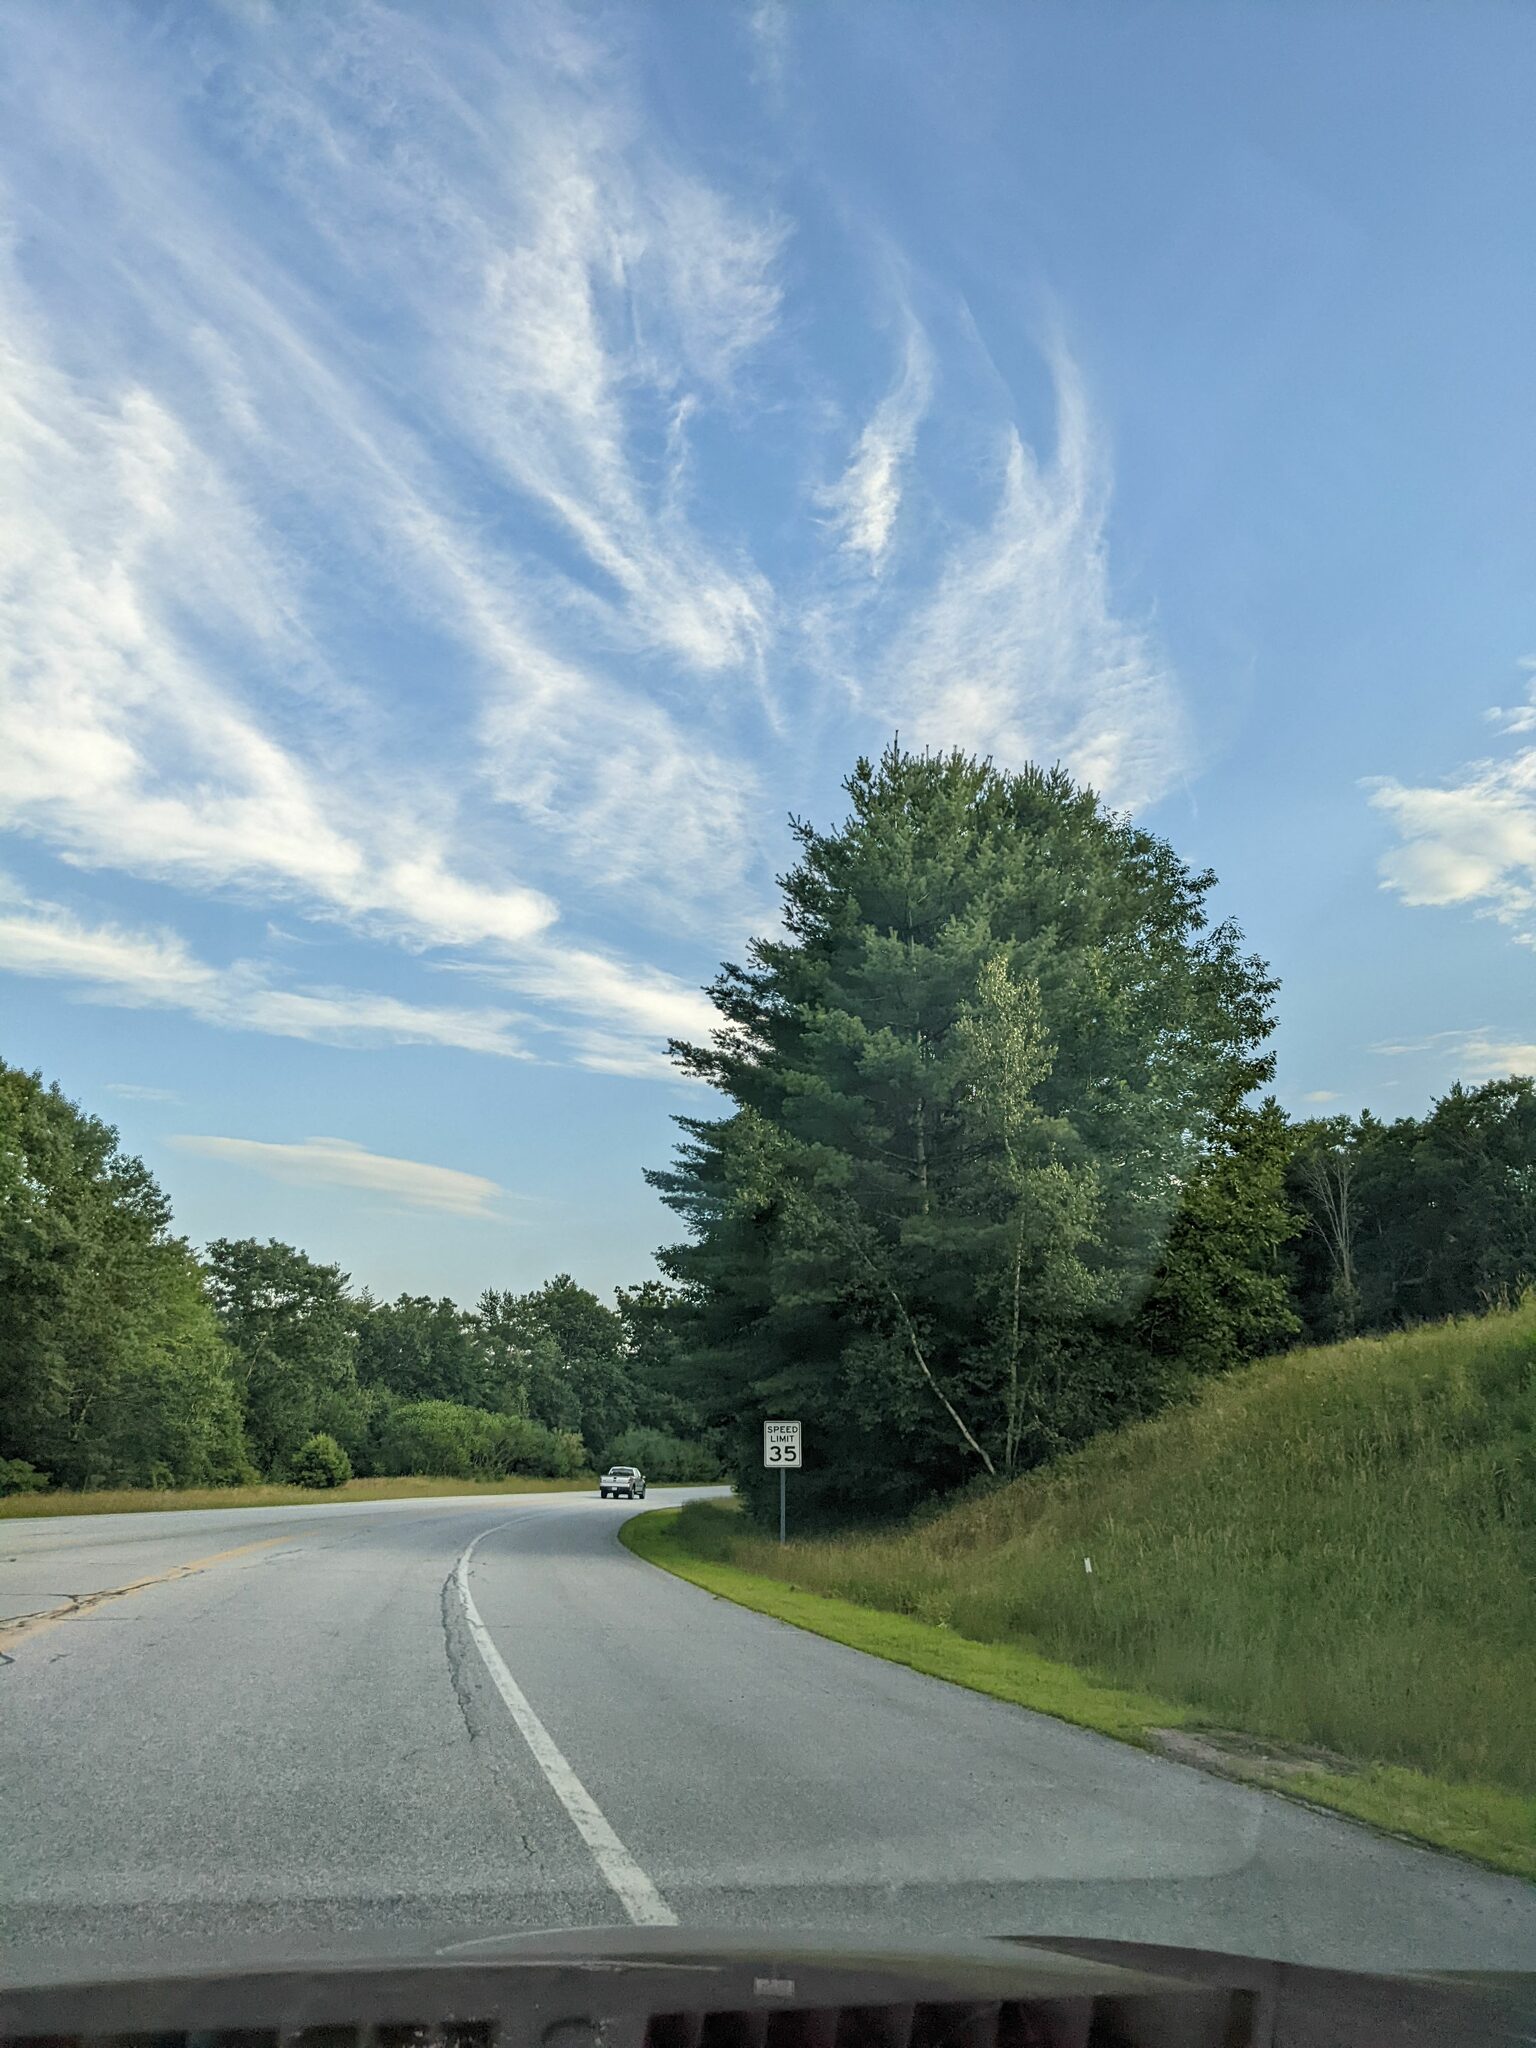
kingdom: Plantae
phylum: Tracheophyta
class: Pinopsida
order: Pinales
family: Pinaceae
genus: Pinus
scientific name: Pinus strobus
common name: Weymouth pine
